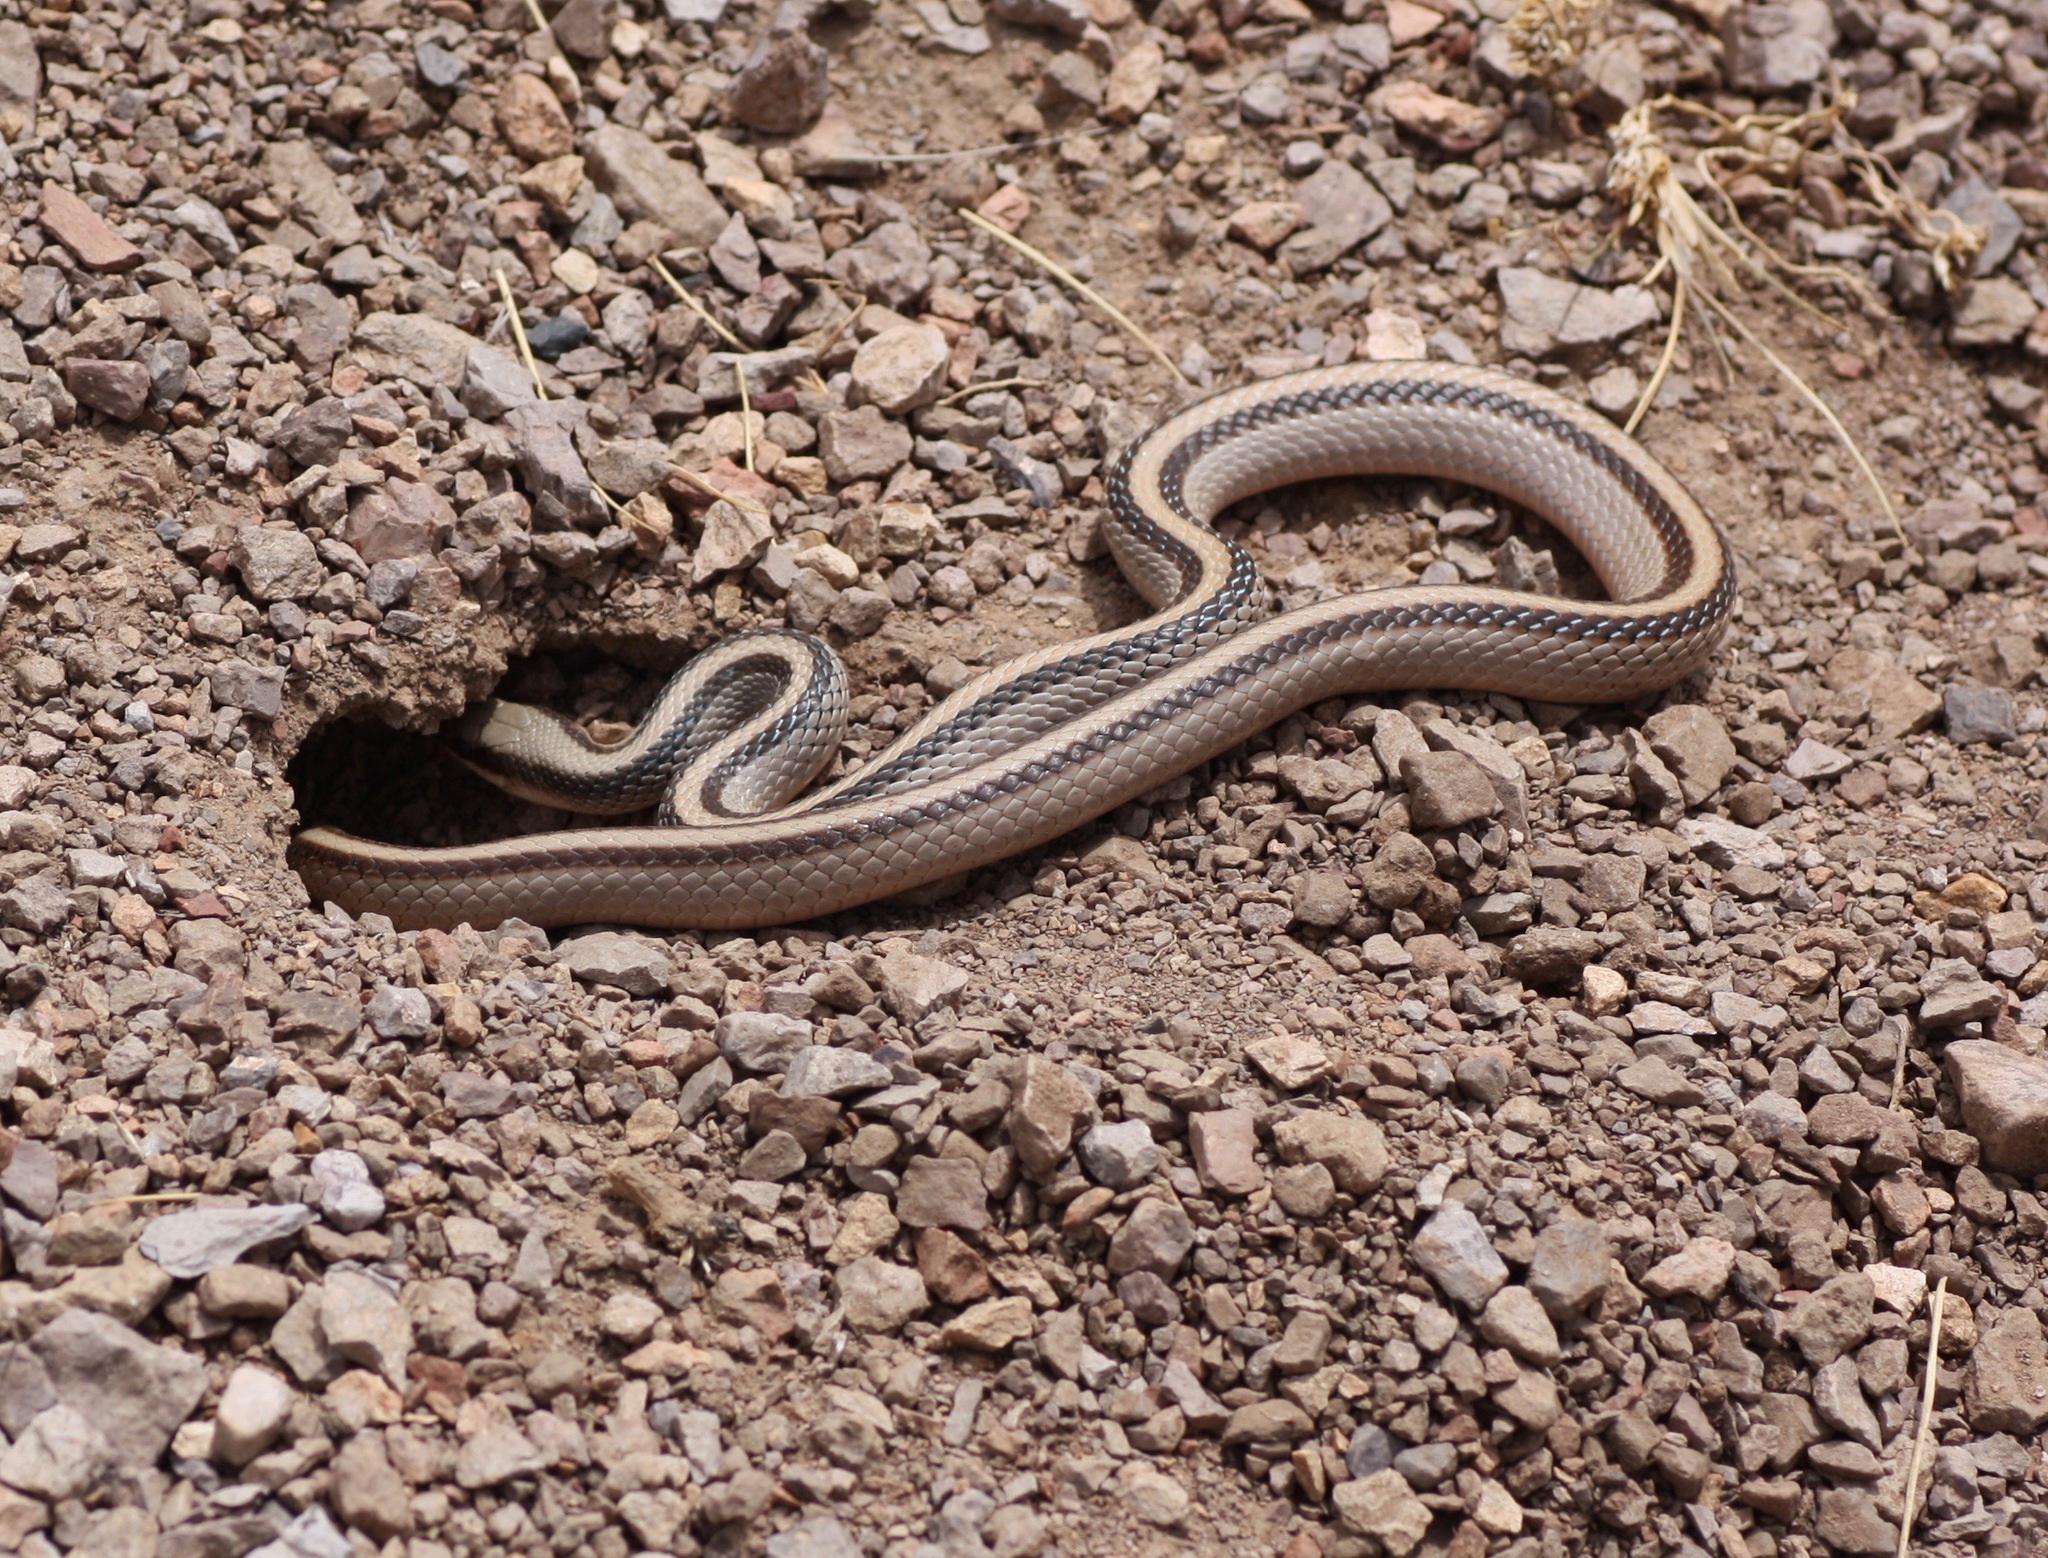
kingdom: Animalia
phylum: Chordata
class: Squamata
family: Colubridae
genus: Salvadora
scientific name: Salvadora grahamiae
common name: Mountain patchnose snake
